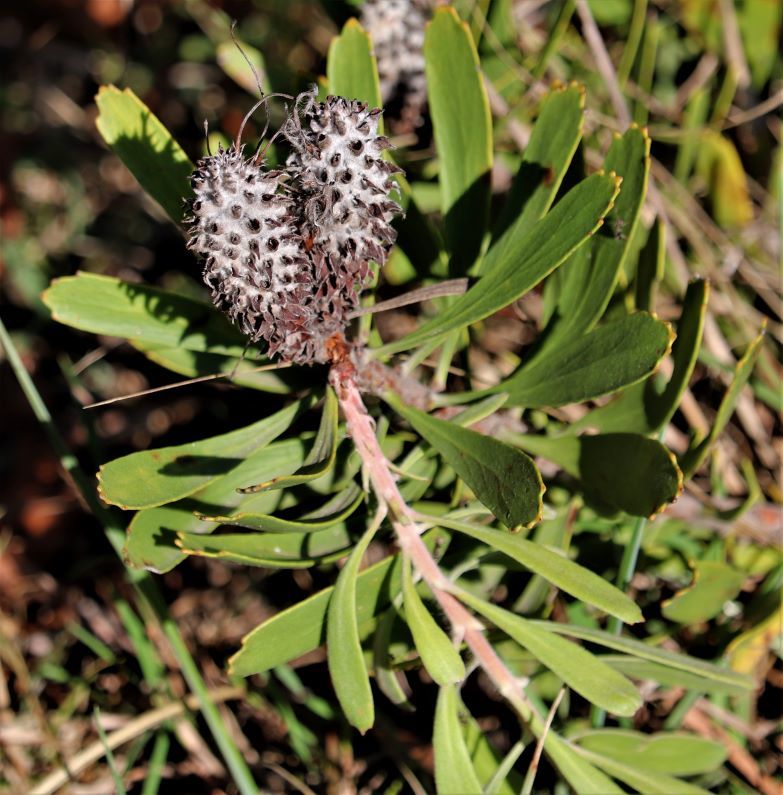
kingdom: Plantae
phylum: Tracheophyta
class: Magnoliopsida
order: Proteales
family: Proteaceae
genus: Leucospermum
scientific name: Leucospermum cuneiforme
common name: Common pincushion
